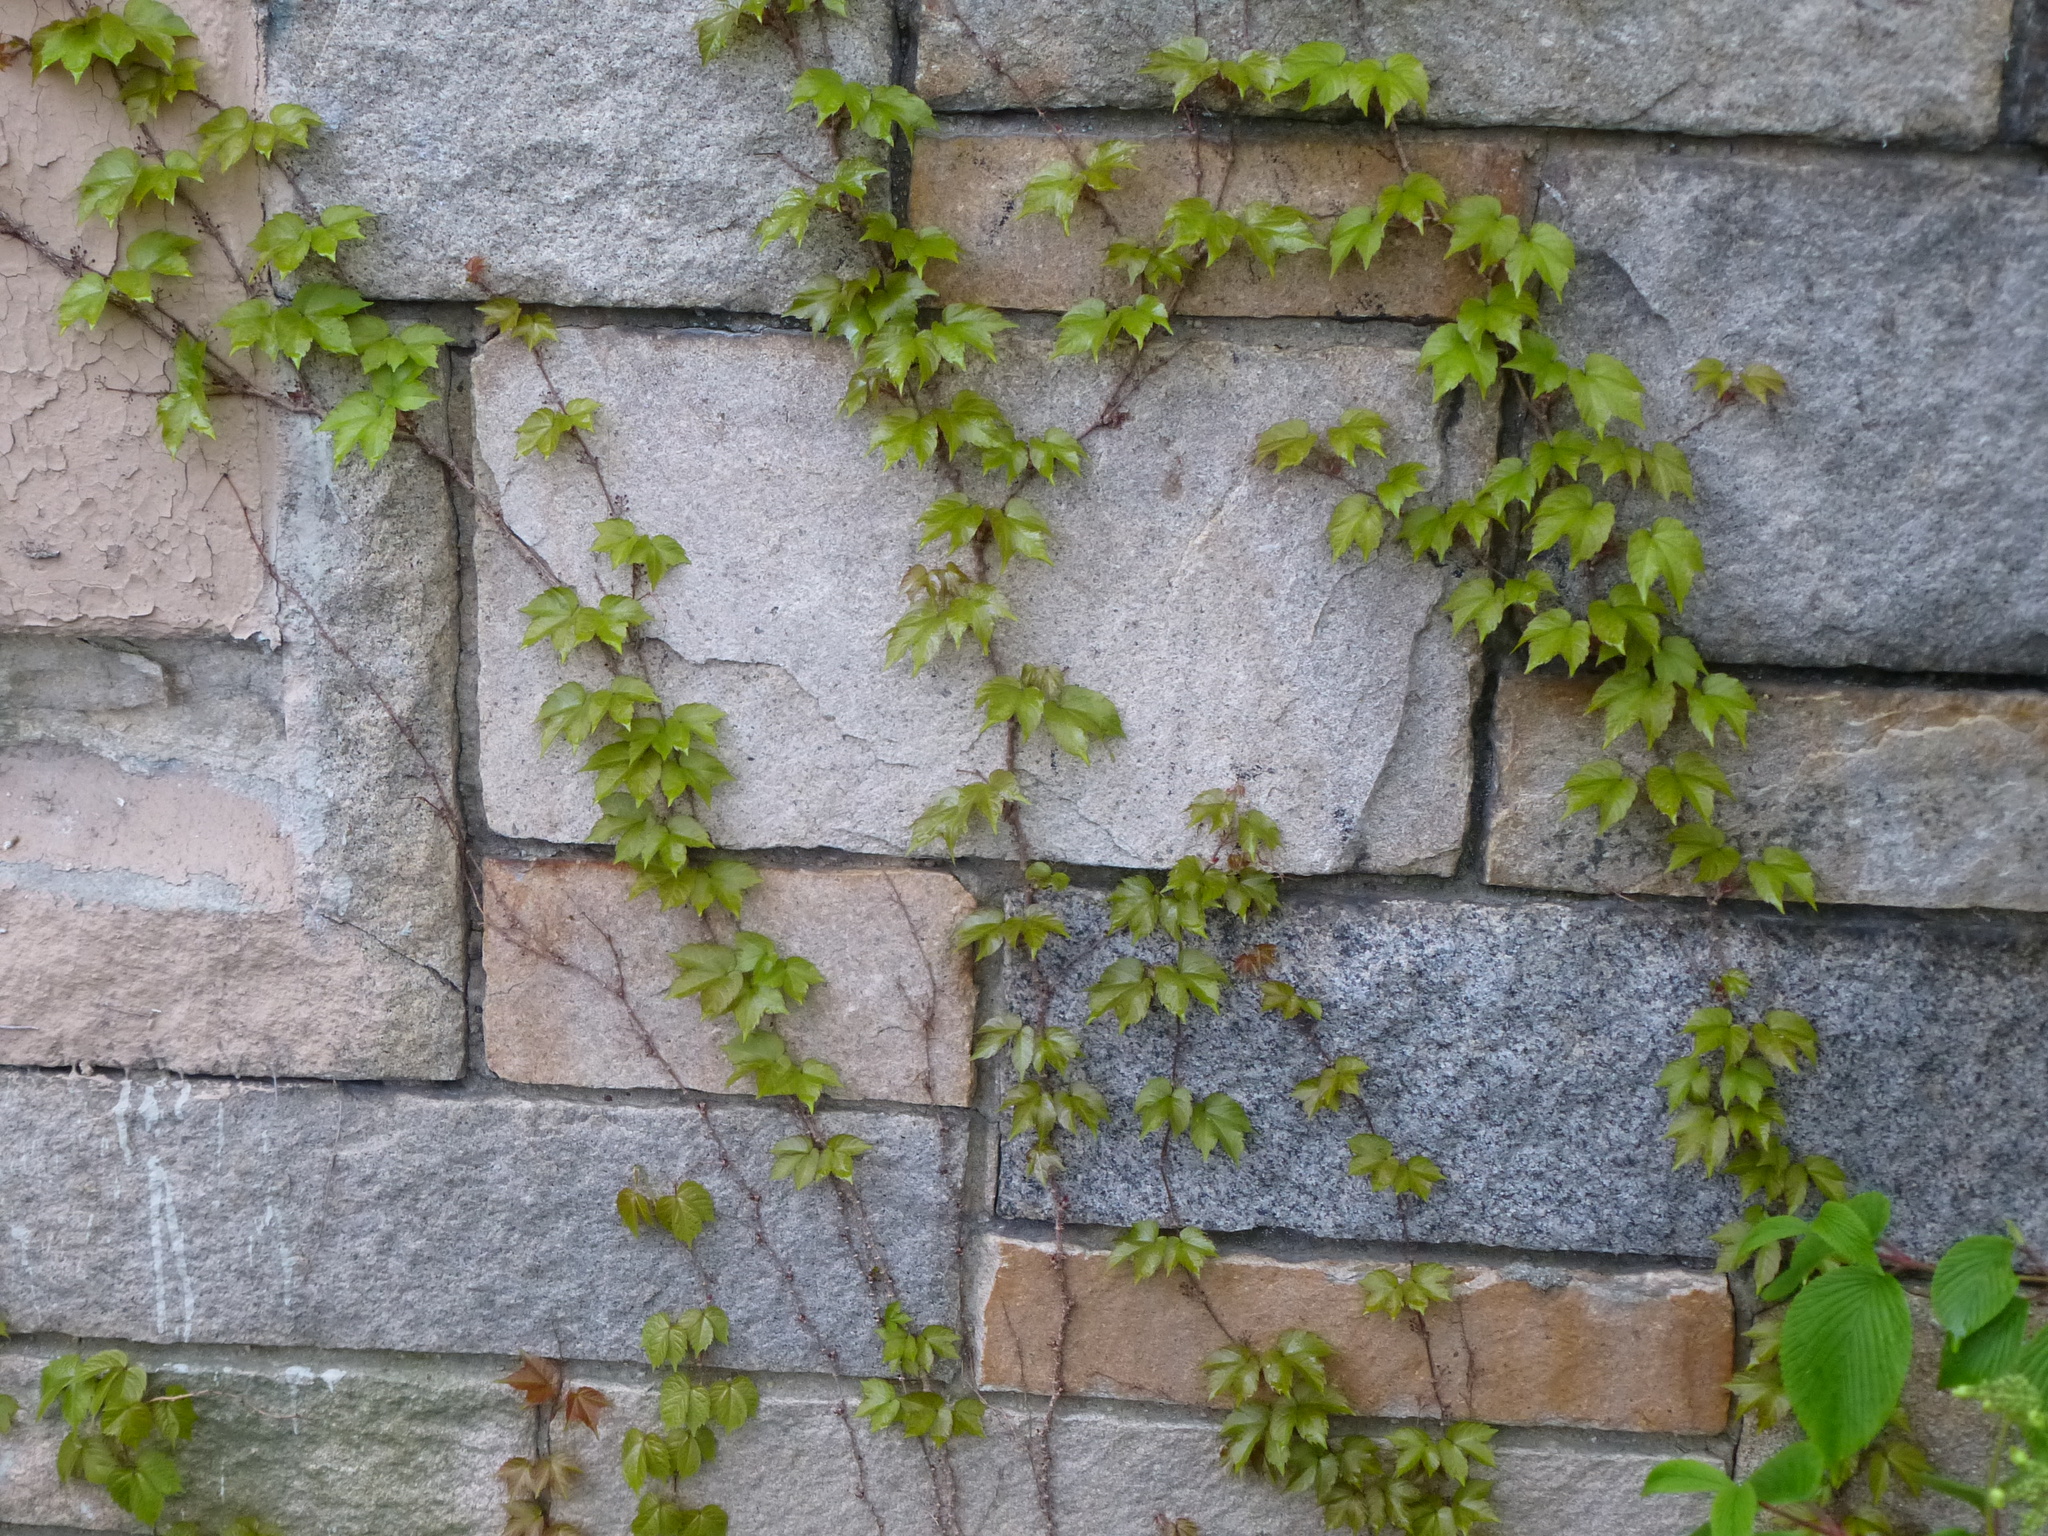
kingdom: Plantae
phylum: Tracheophyta
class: Magnoliopsida
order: Vitales
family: Vitaceae
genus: Parthenocissus
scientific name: Parthenocissus tricuspidata
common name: Boston ivy
